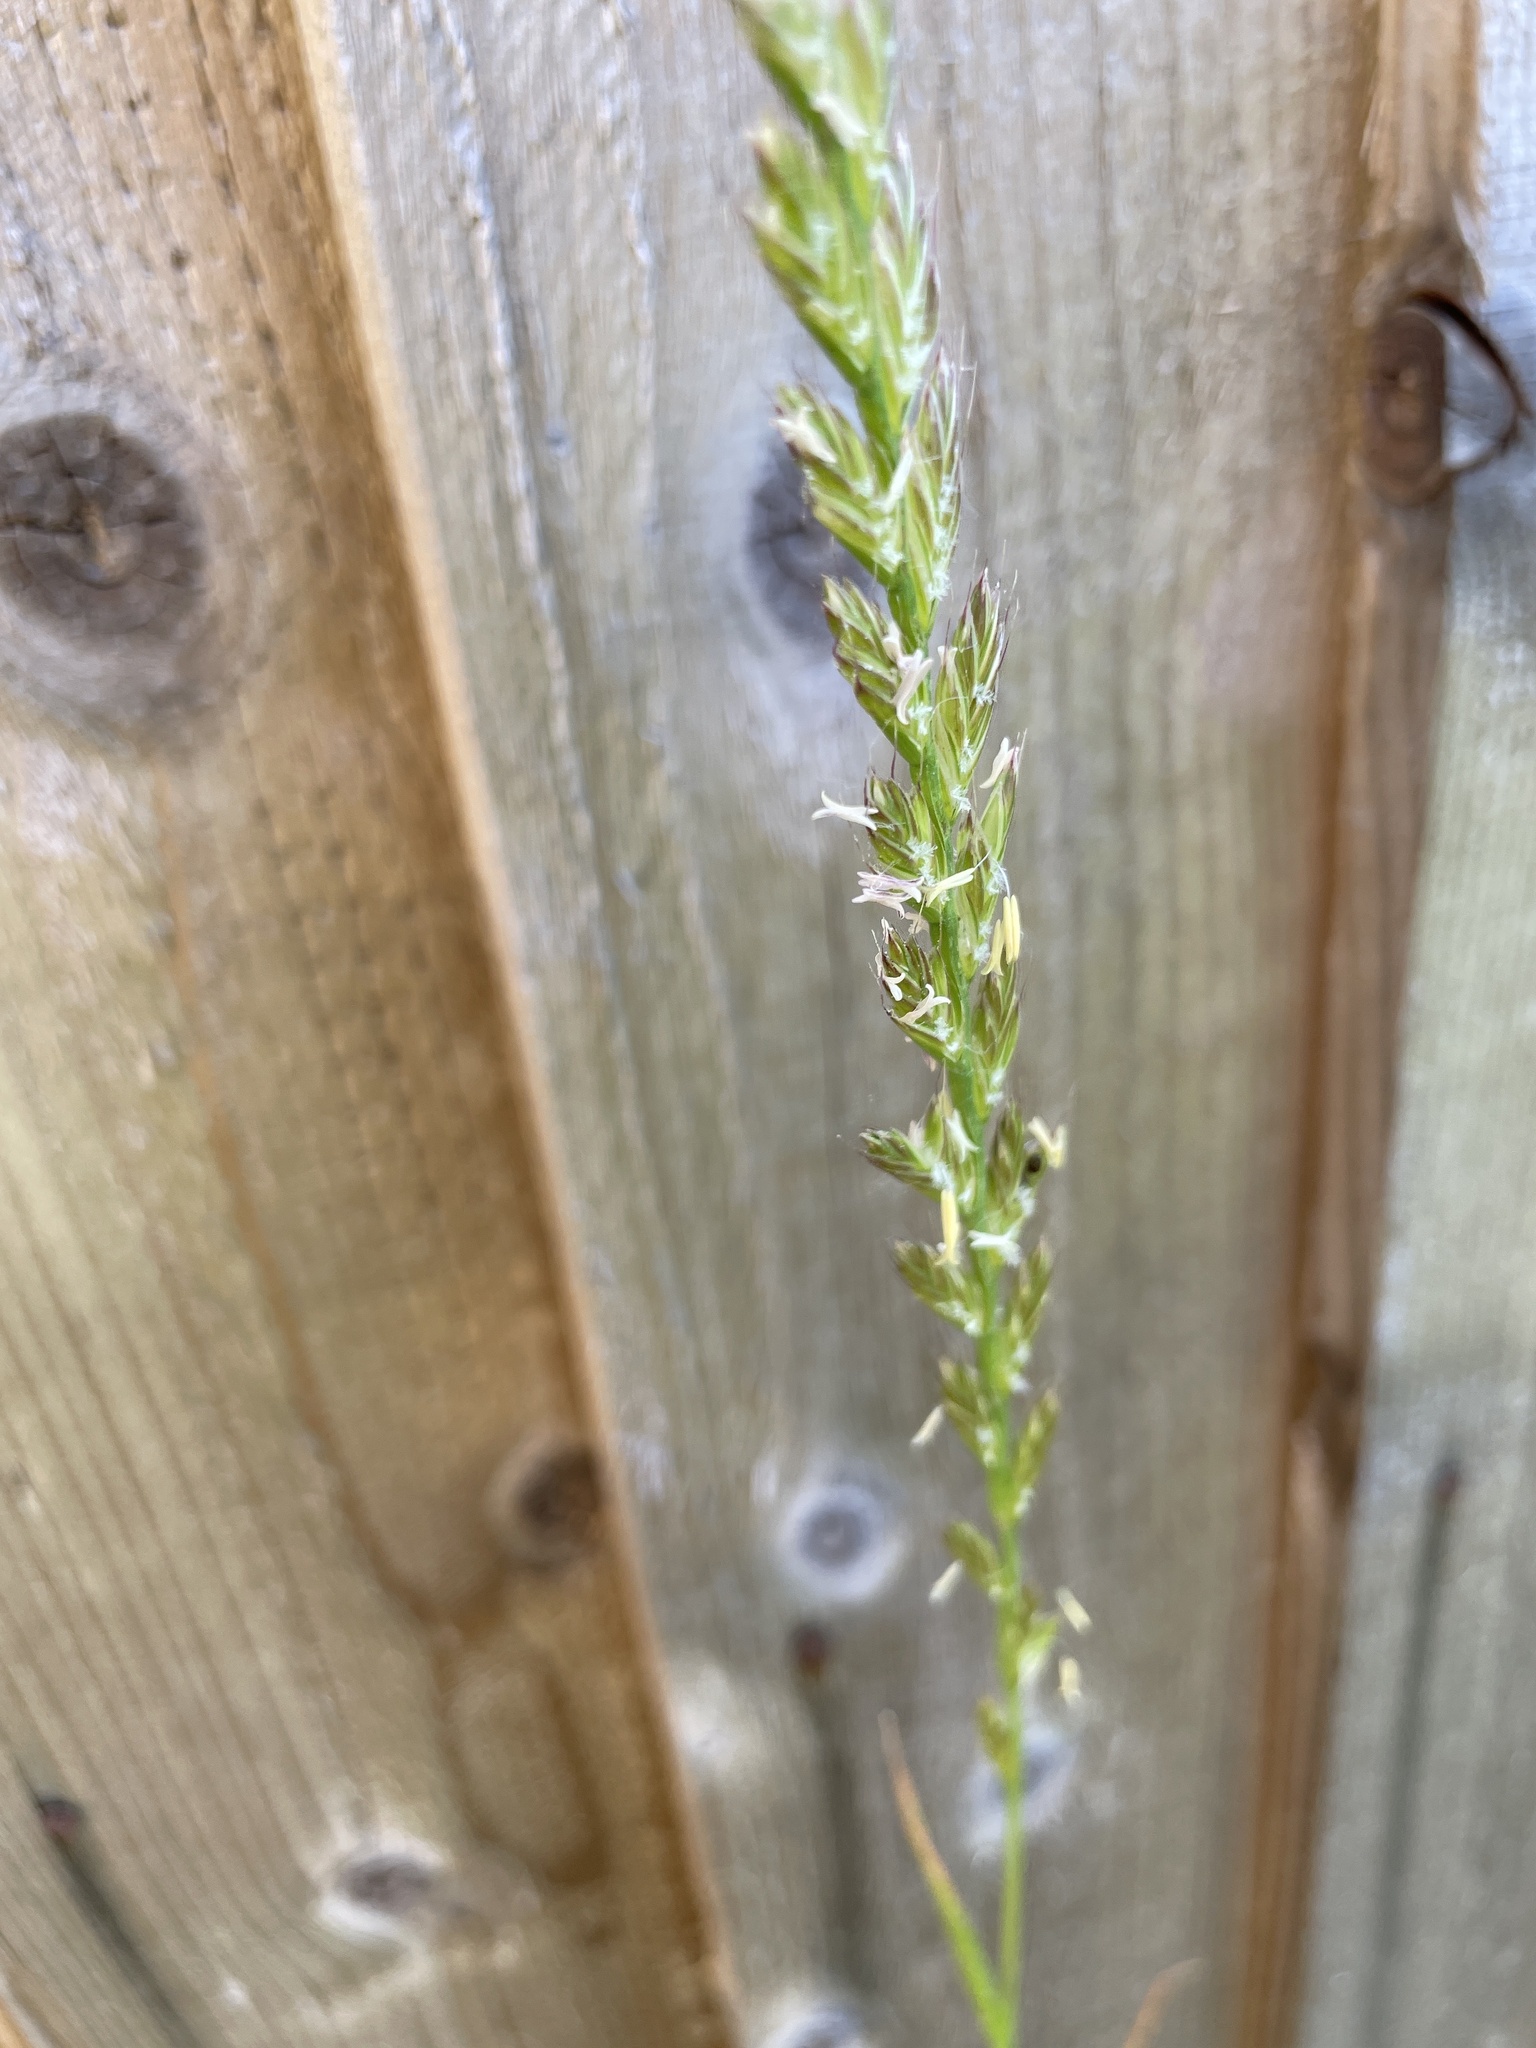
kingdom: Plantae
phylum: Tracheophyta
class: Liliopsida
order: Poales
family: Poaceae
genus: Lolium
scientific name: Lolium multiflorum
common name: Annual ryegrass
